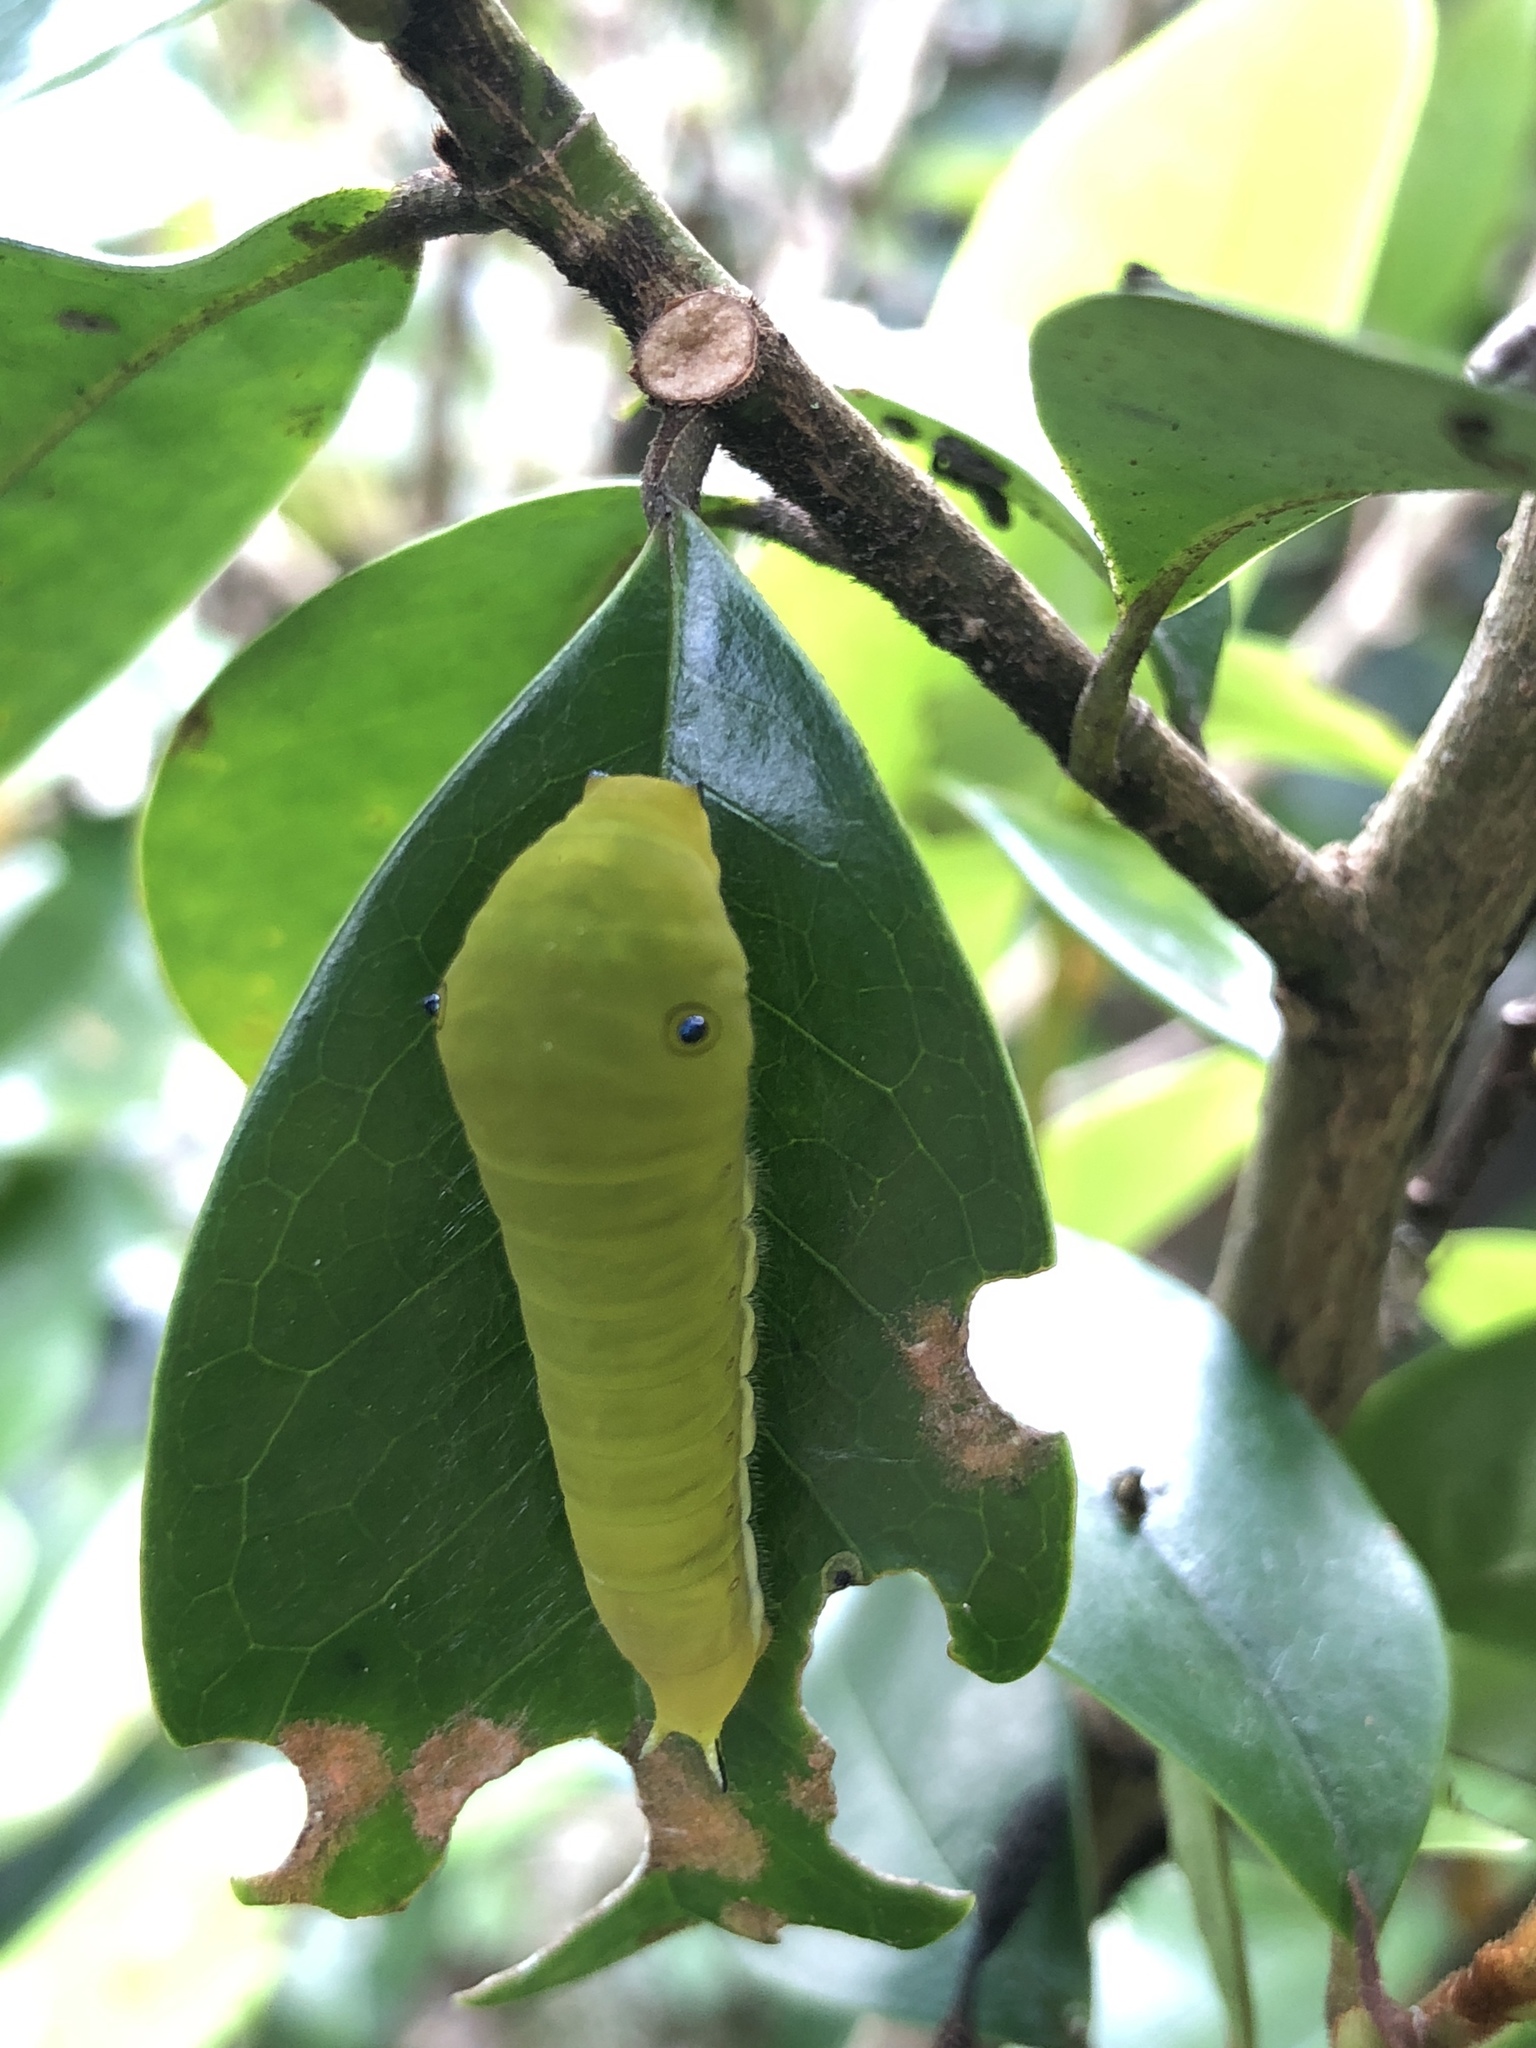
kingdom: Animalia
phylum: Arthropoda
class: Insecta
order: Lepidoptera
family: Papilionidae
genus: Graphium
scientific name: Graphium doson
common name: Common jay
